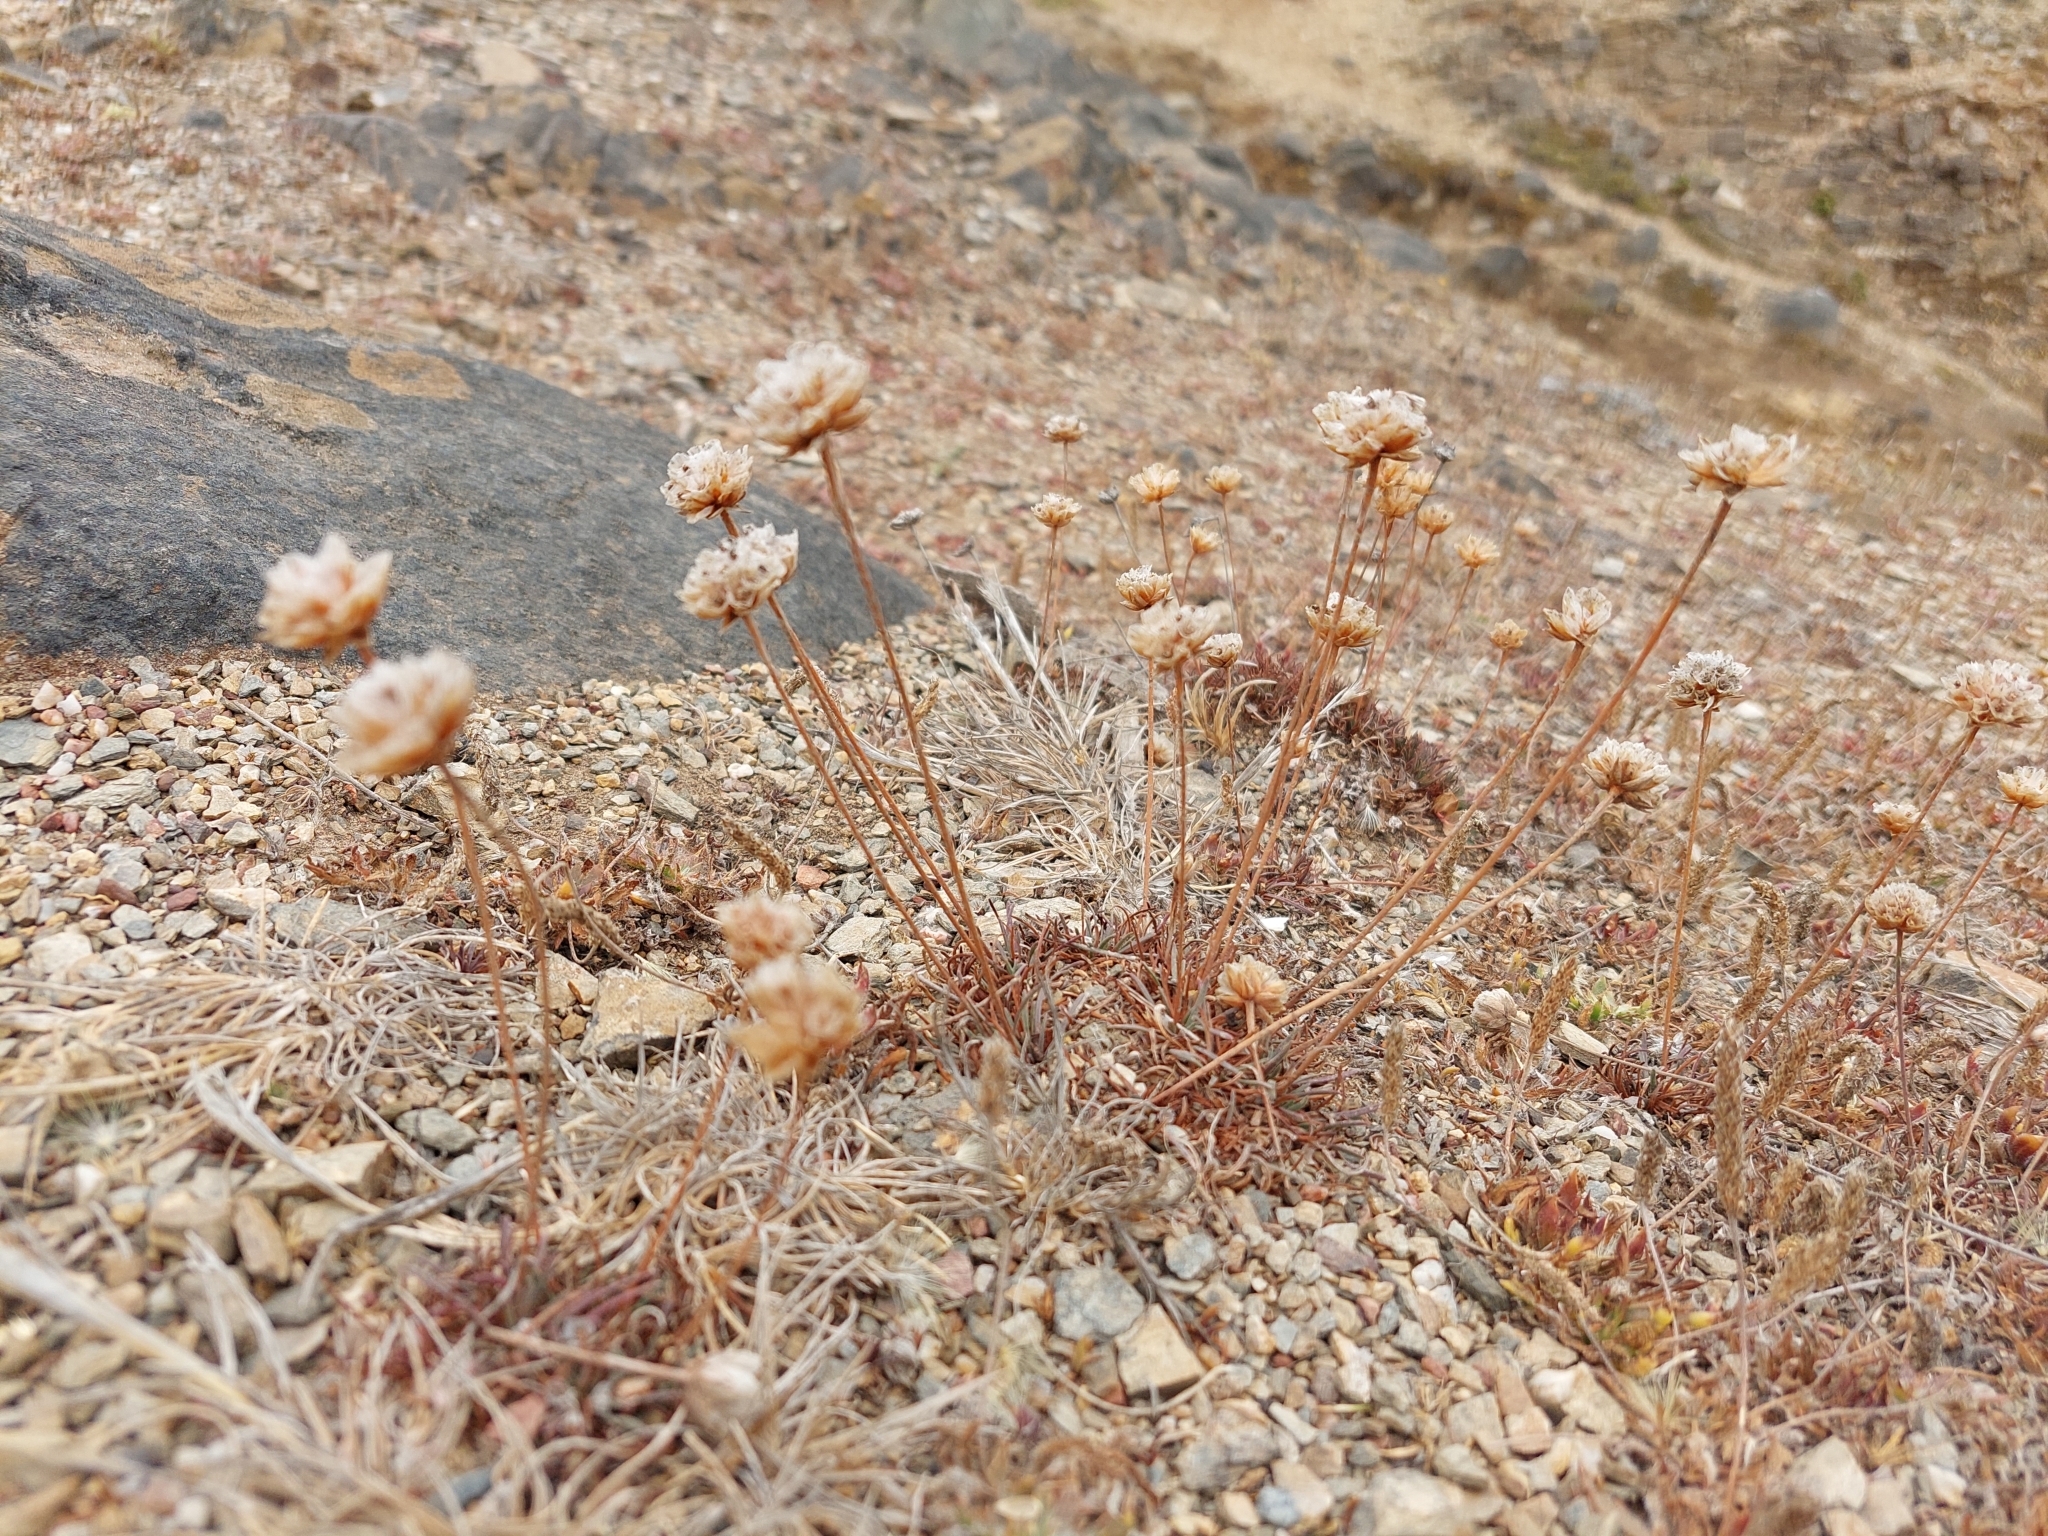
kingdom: Plantae
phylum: Tracheophyta
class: Magnoliopsida
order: Caryophyllales
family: Plumbaginaceae
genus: Armeria
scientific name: Armeria curvifolia
